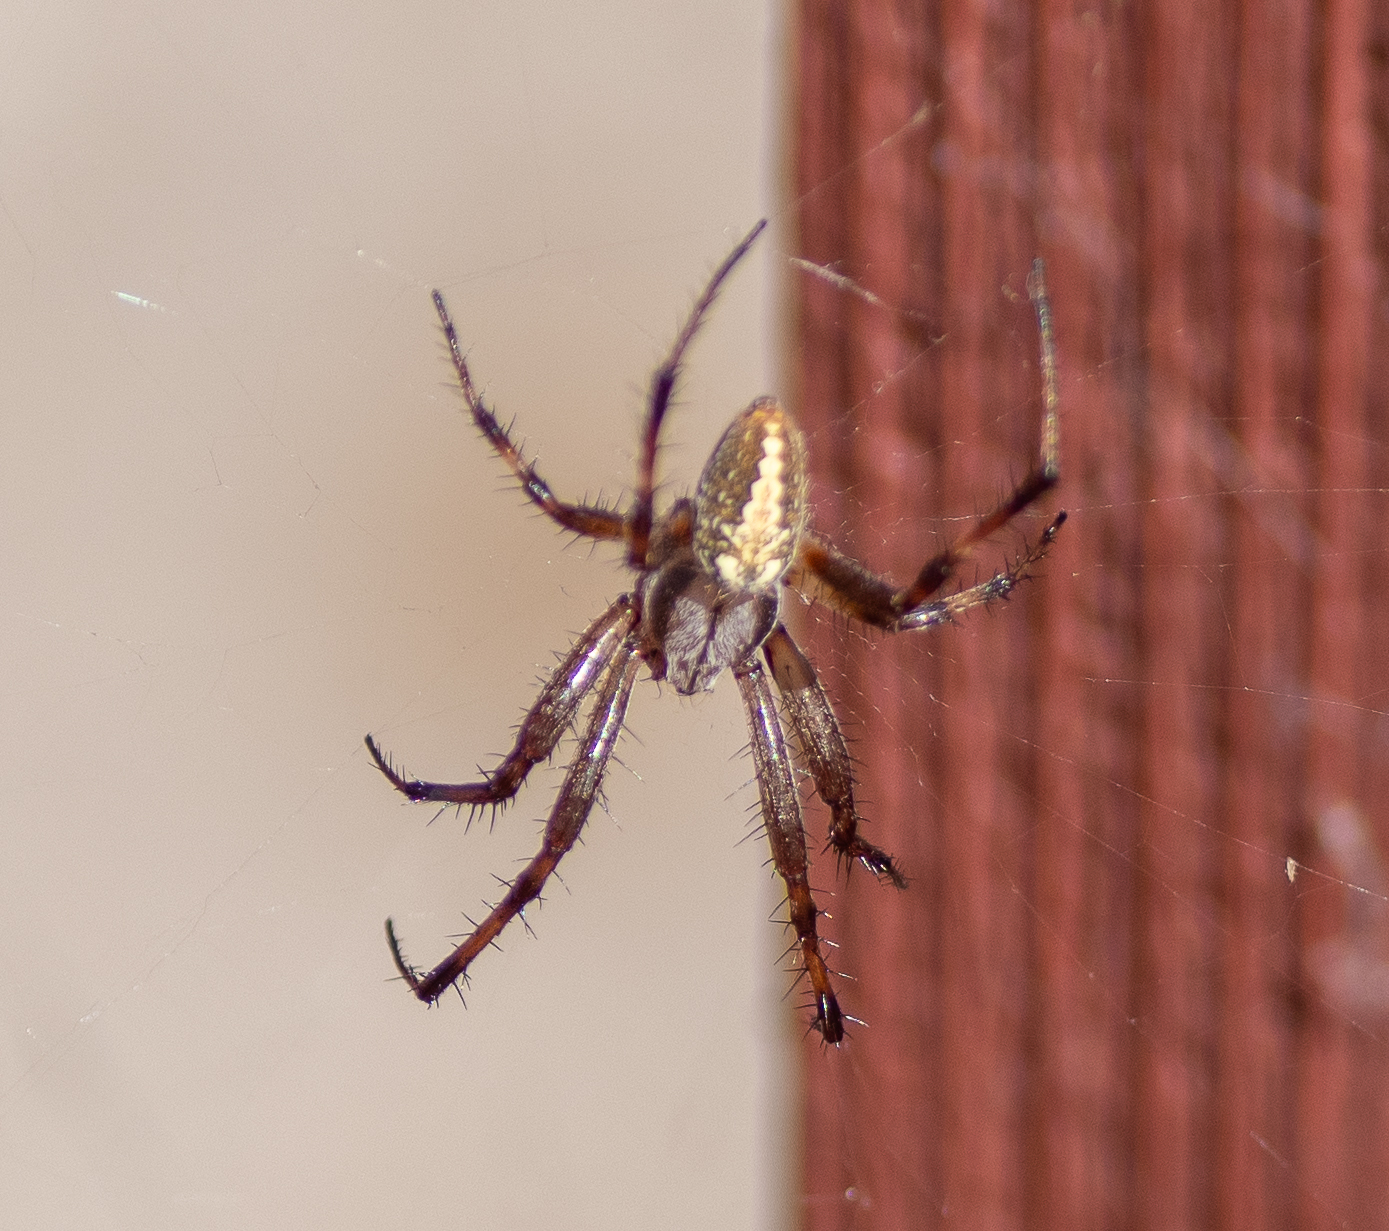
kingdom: Animalia
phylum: Arthropoda
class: Arachnida
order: Araneae
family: Araneidae
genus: Neoscona
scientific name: Neoscona oaxacensis
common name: Orb weavers
